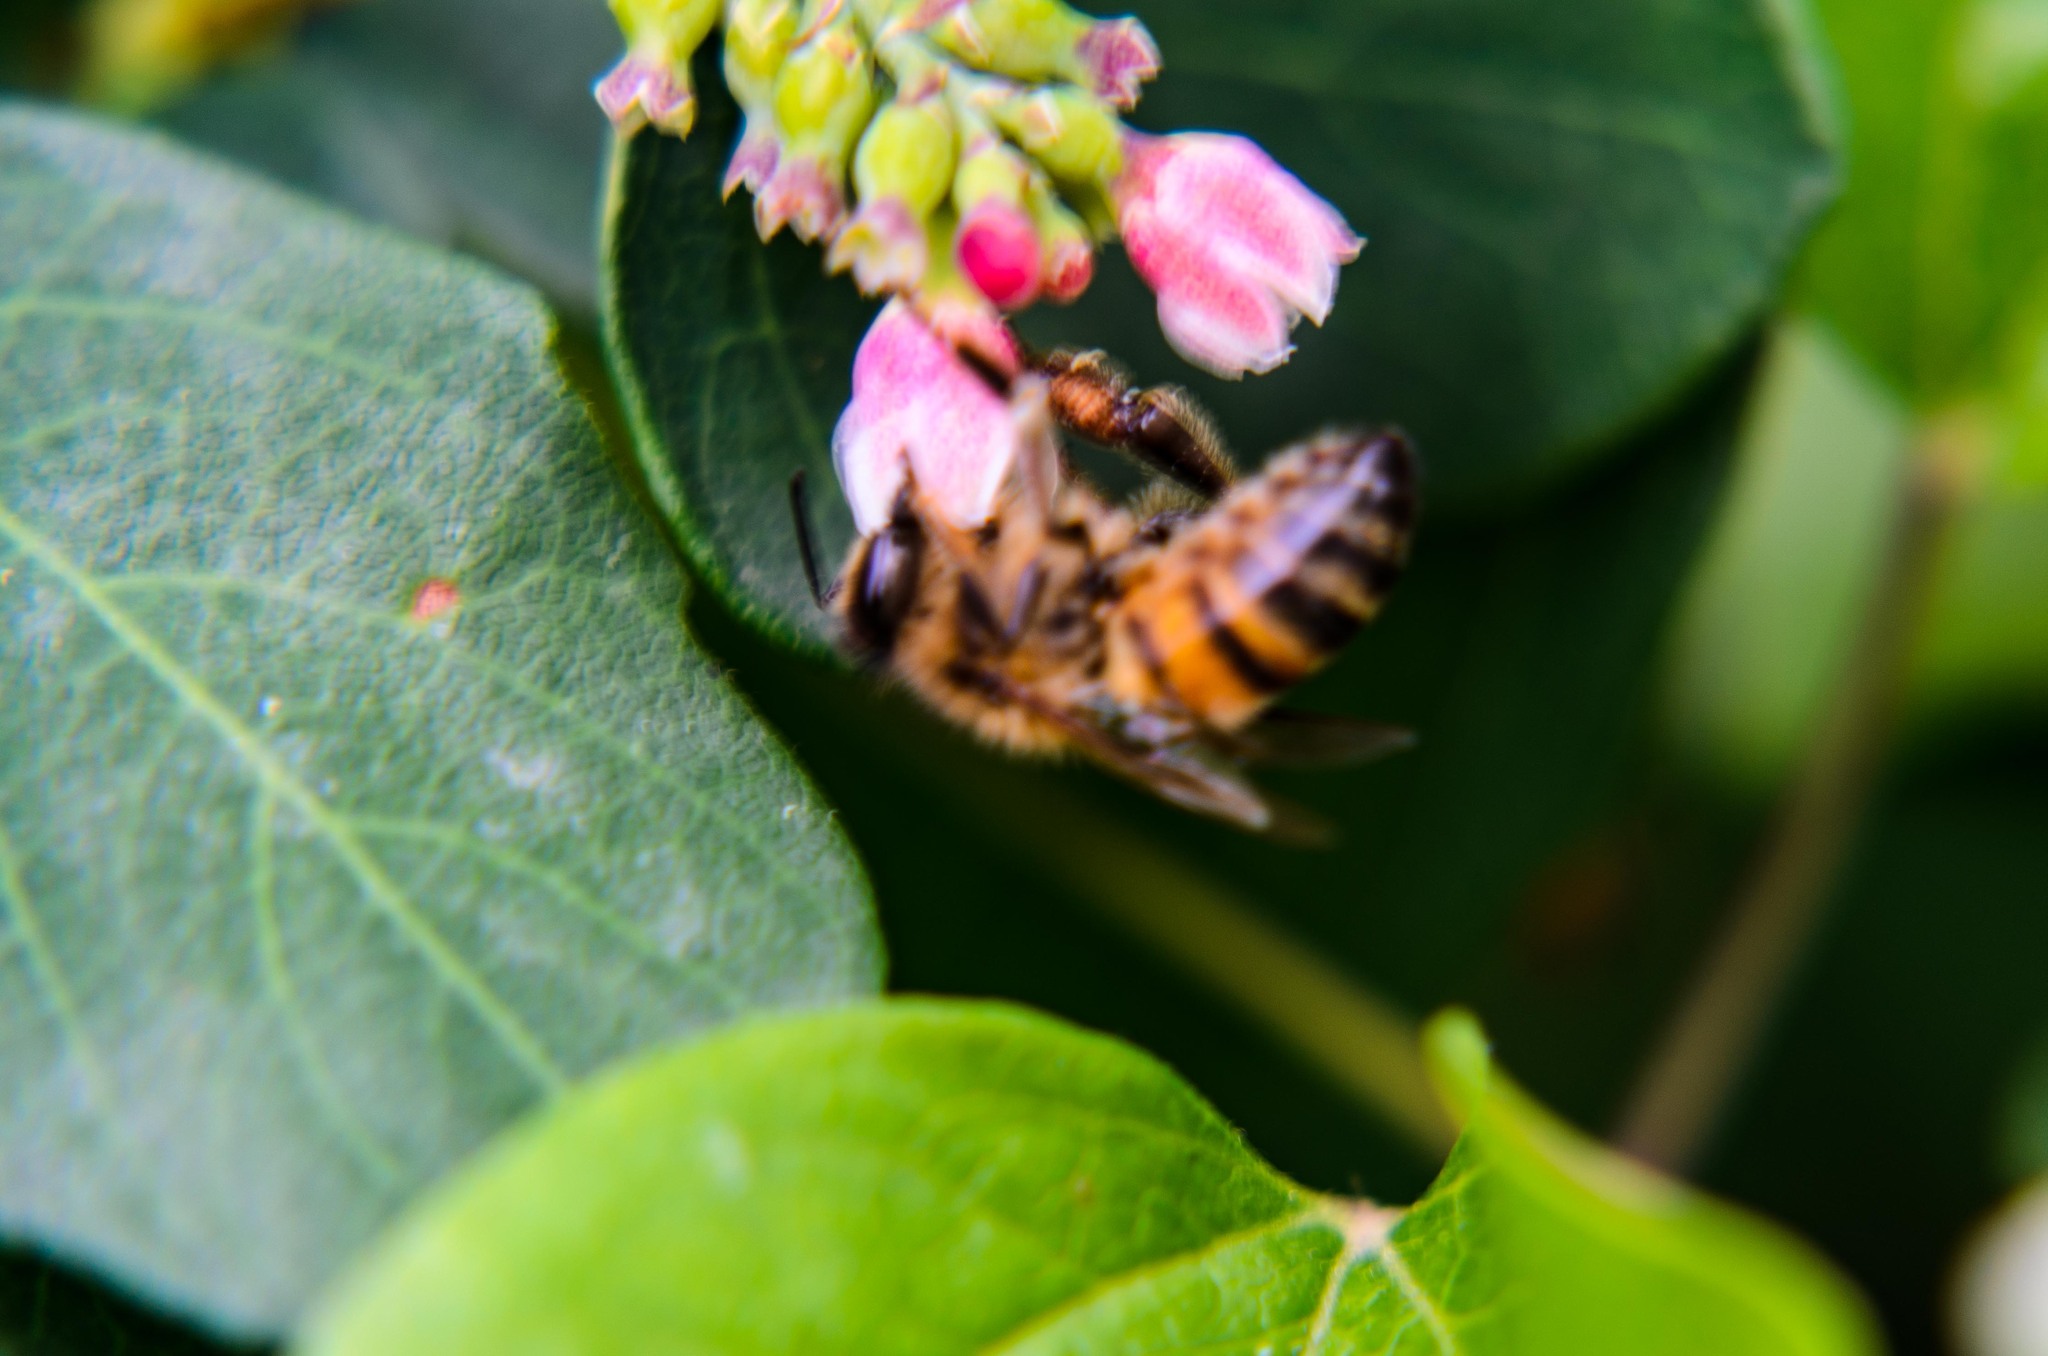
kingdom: Animalia
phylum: Arthropoda
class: Insecta
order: Hymenoptera
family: Apidae
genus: Apis
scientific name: Apis mellifera
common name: Honey bee
